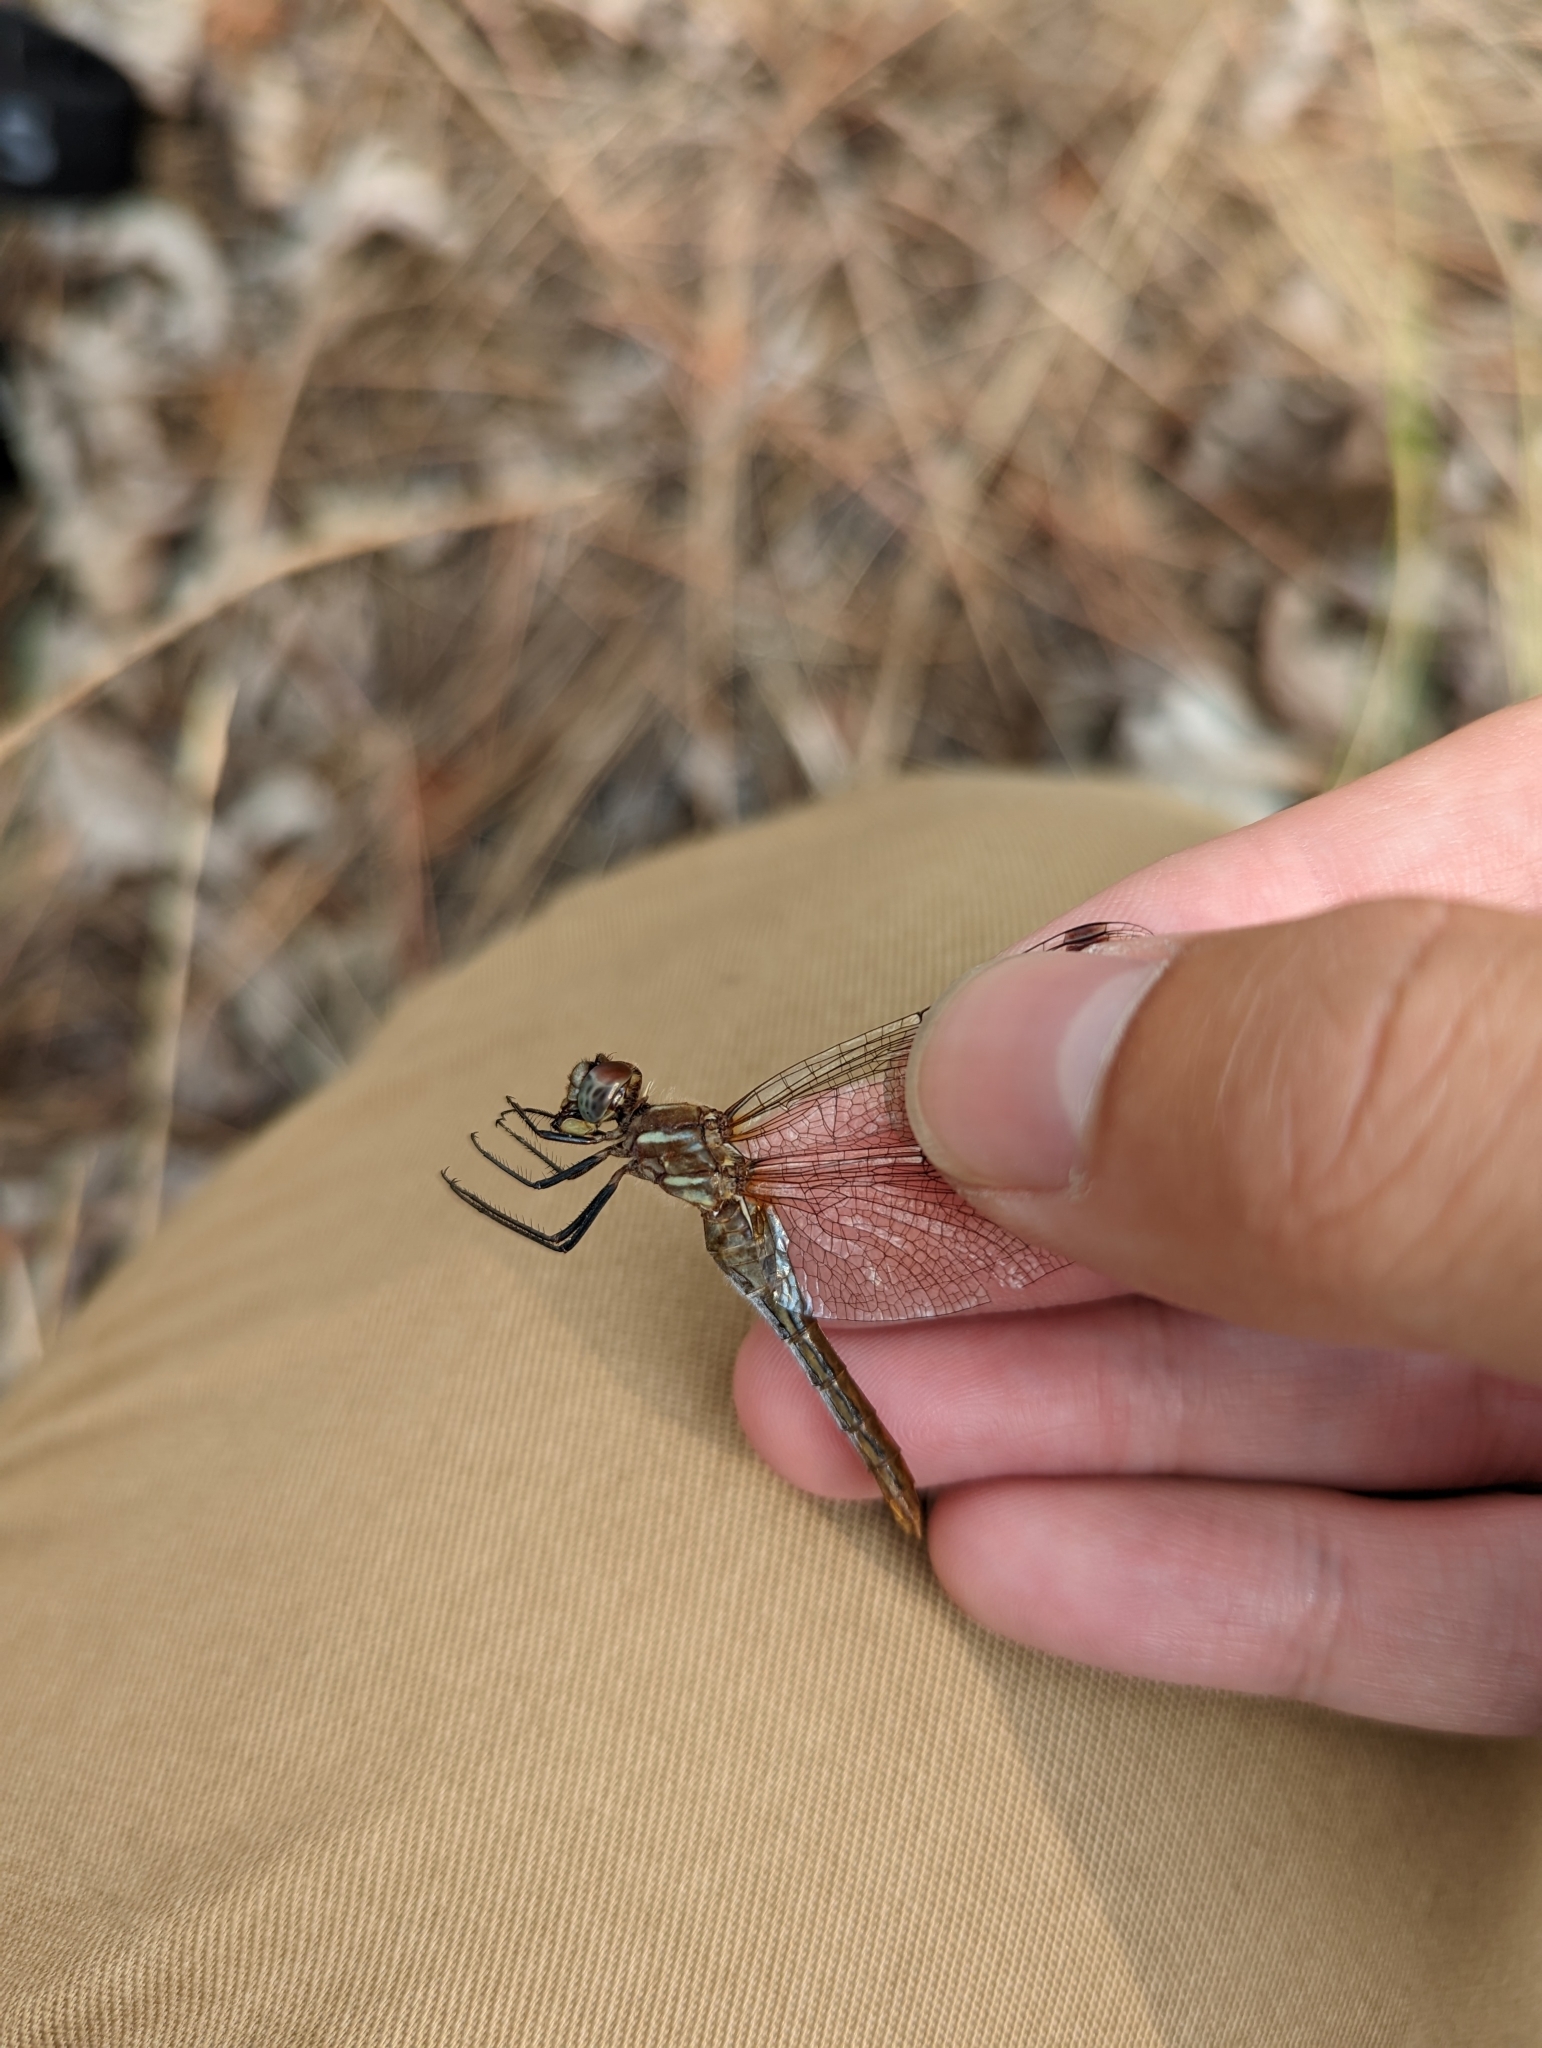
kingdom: Animalia
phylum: Arthropoda
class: Insecta
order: Odonata
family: Libellulidae
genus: Sympetrum
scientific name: Sympetrum pallipes
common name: Striped meadowhawk
